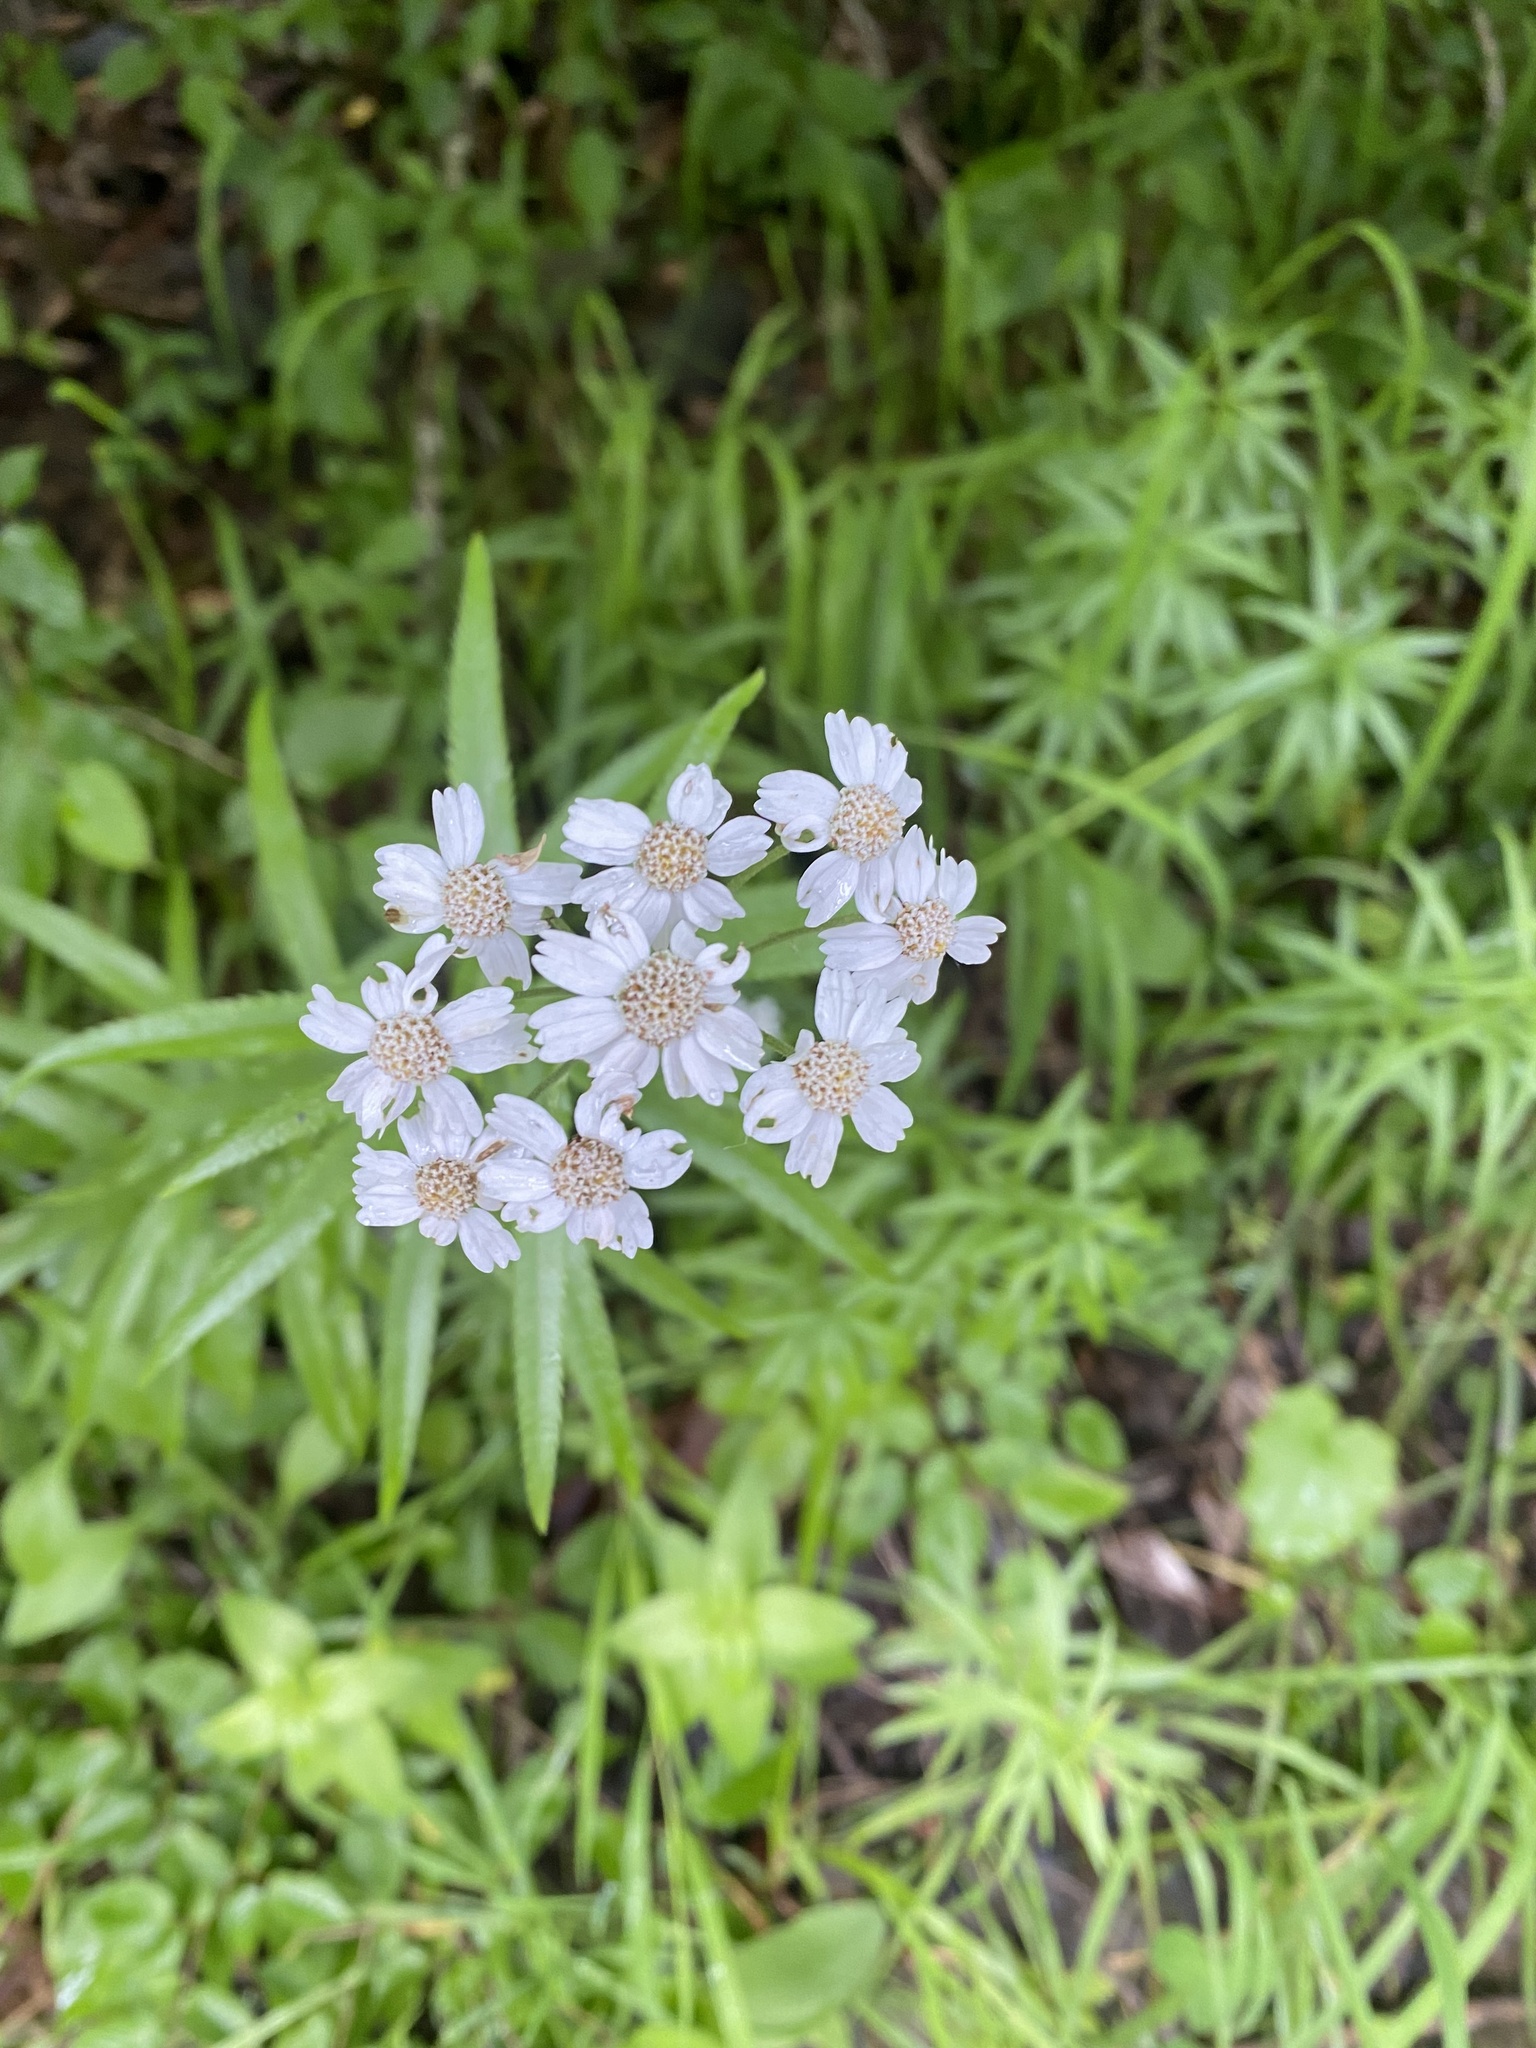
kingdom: Plantae
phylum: Tracheophyta
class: Magnoliopsida
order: Asterales
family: Asteraceae
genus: Achillea
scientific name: Achillea biserrata
